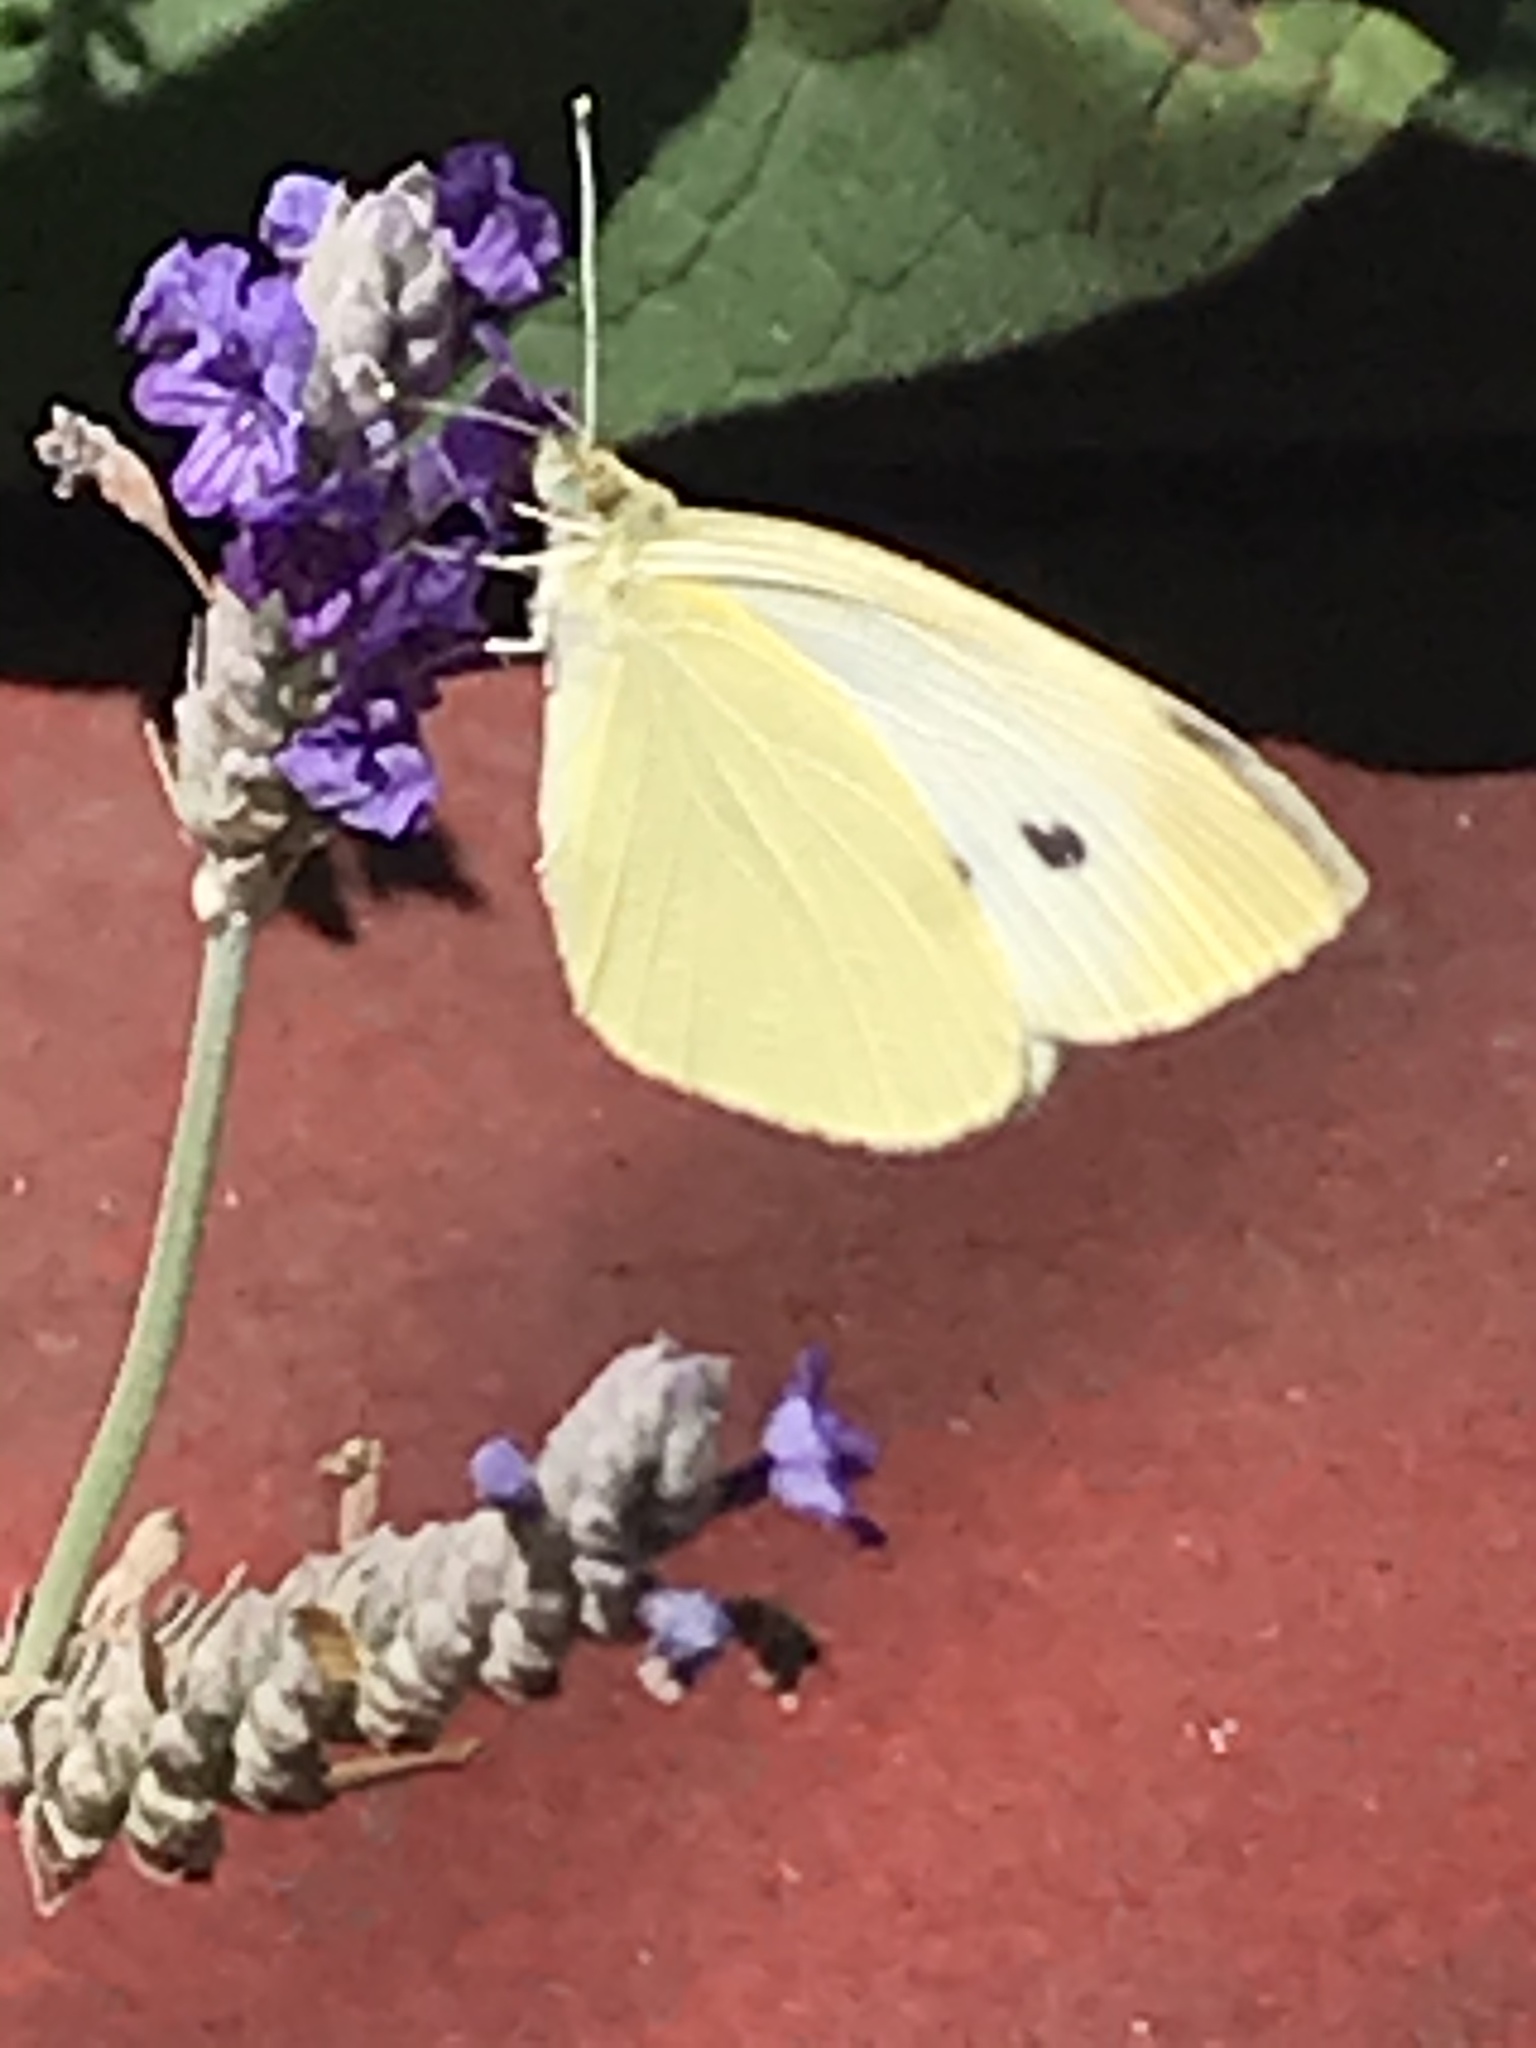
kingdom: Animalia
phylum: Arthropoda
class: Insecta
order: Lepidoptera
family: Pieridae
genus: Pieris
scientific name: Pieris rapae
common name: Small white
